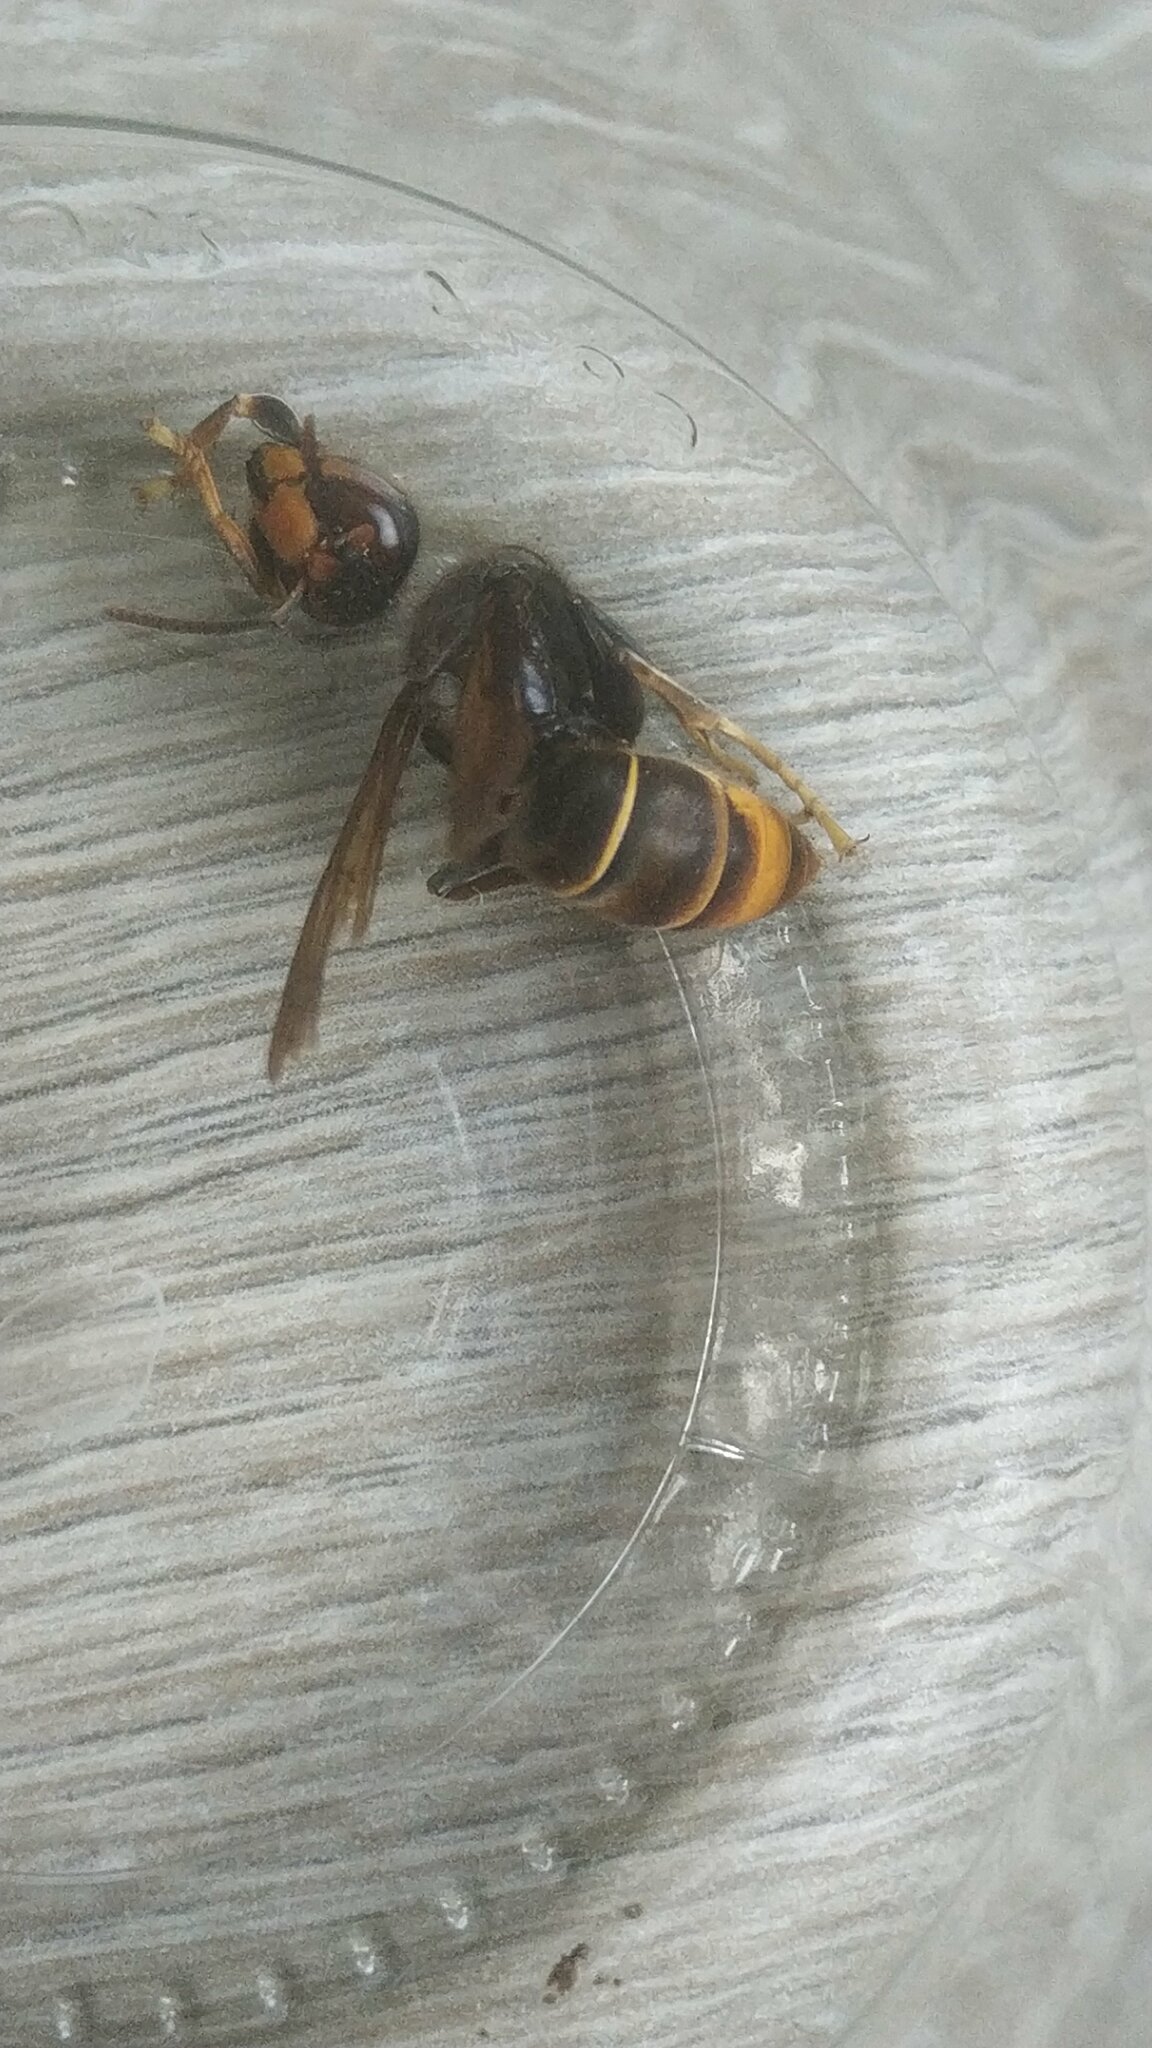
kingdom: Animalia
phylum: Arthropoda
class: Insecta
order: Hymenoptera
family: Vespidae
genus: Vespa
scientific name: Vespa velutina
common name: Asian hornet
